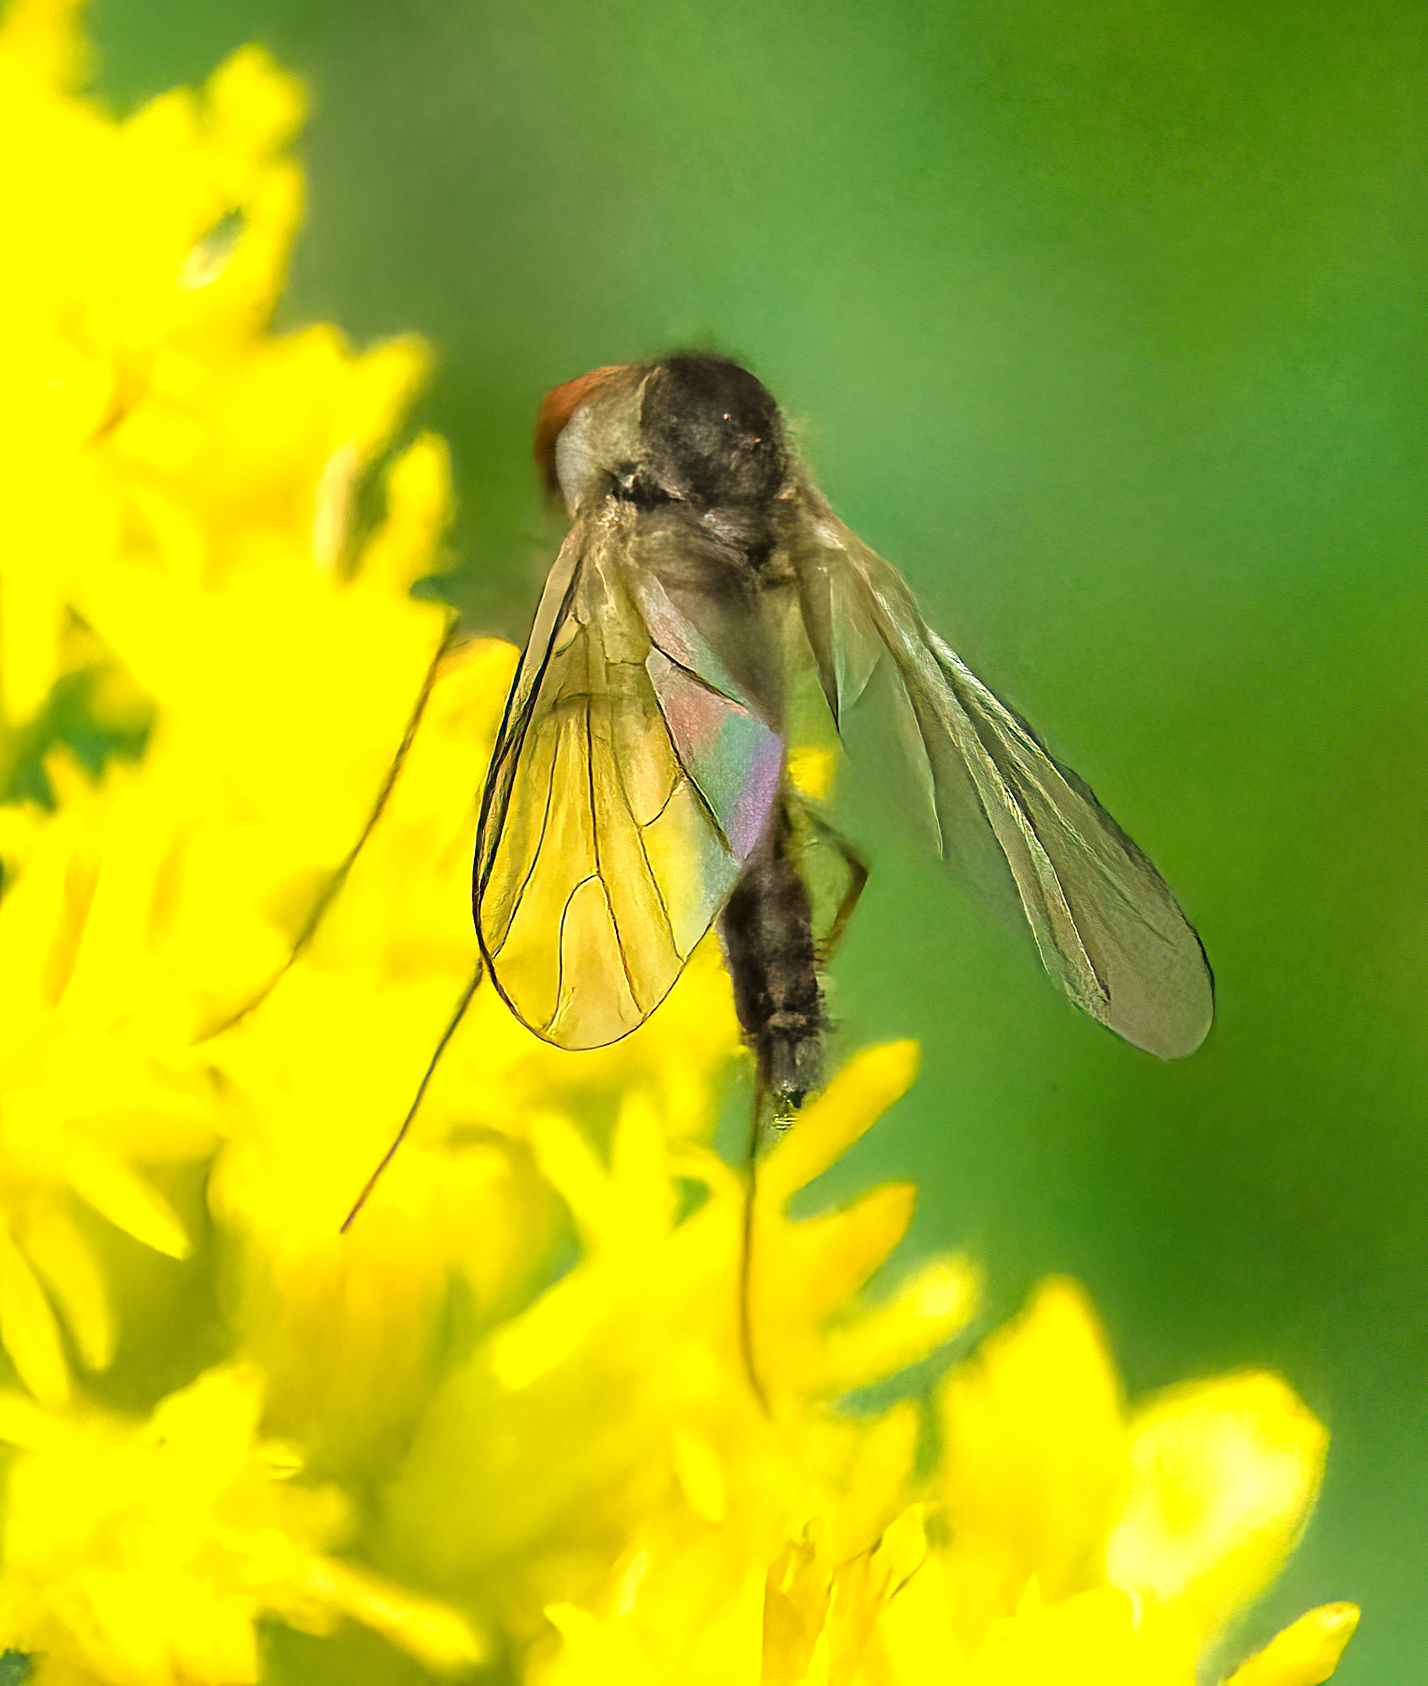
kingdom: Animalia
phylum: Arthropoda
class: Insecta
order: Diptera
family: Bombyliidae
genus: Geron
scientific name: Geron calvus
